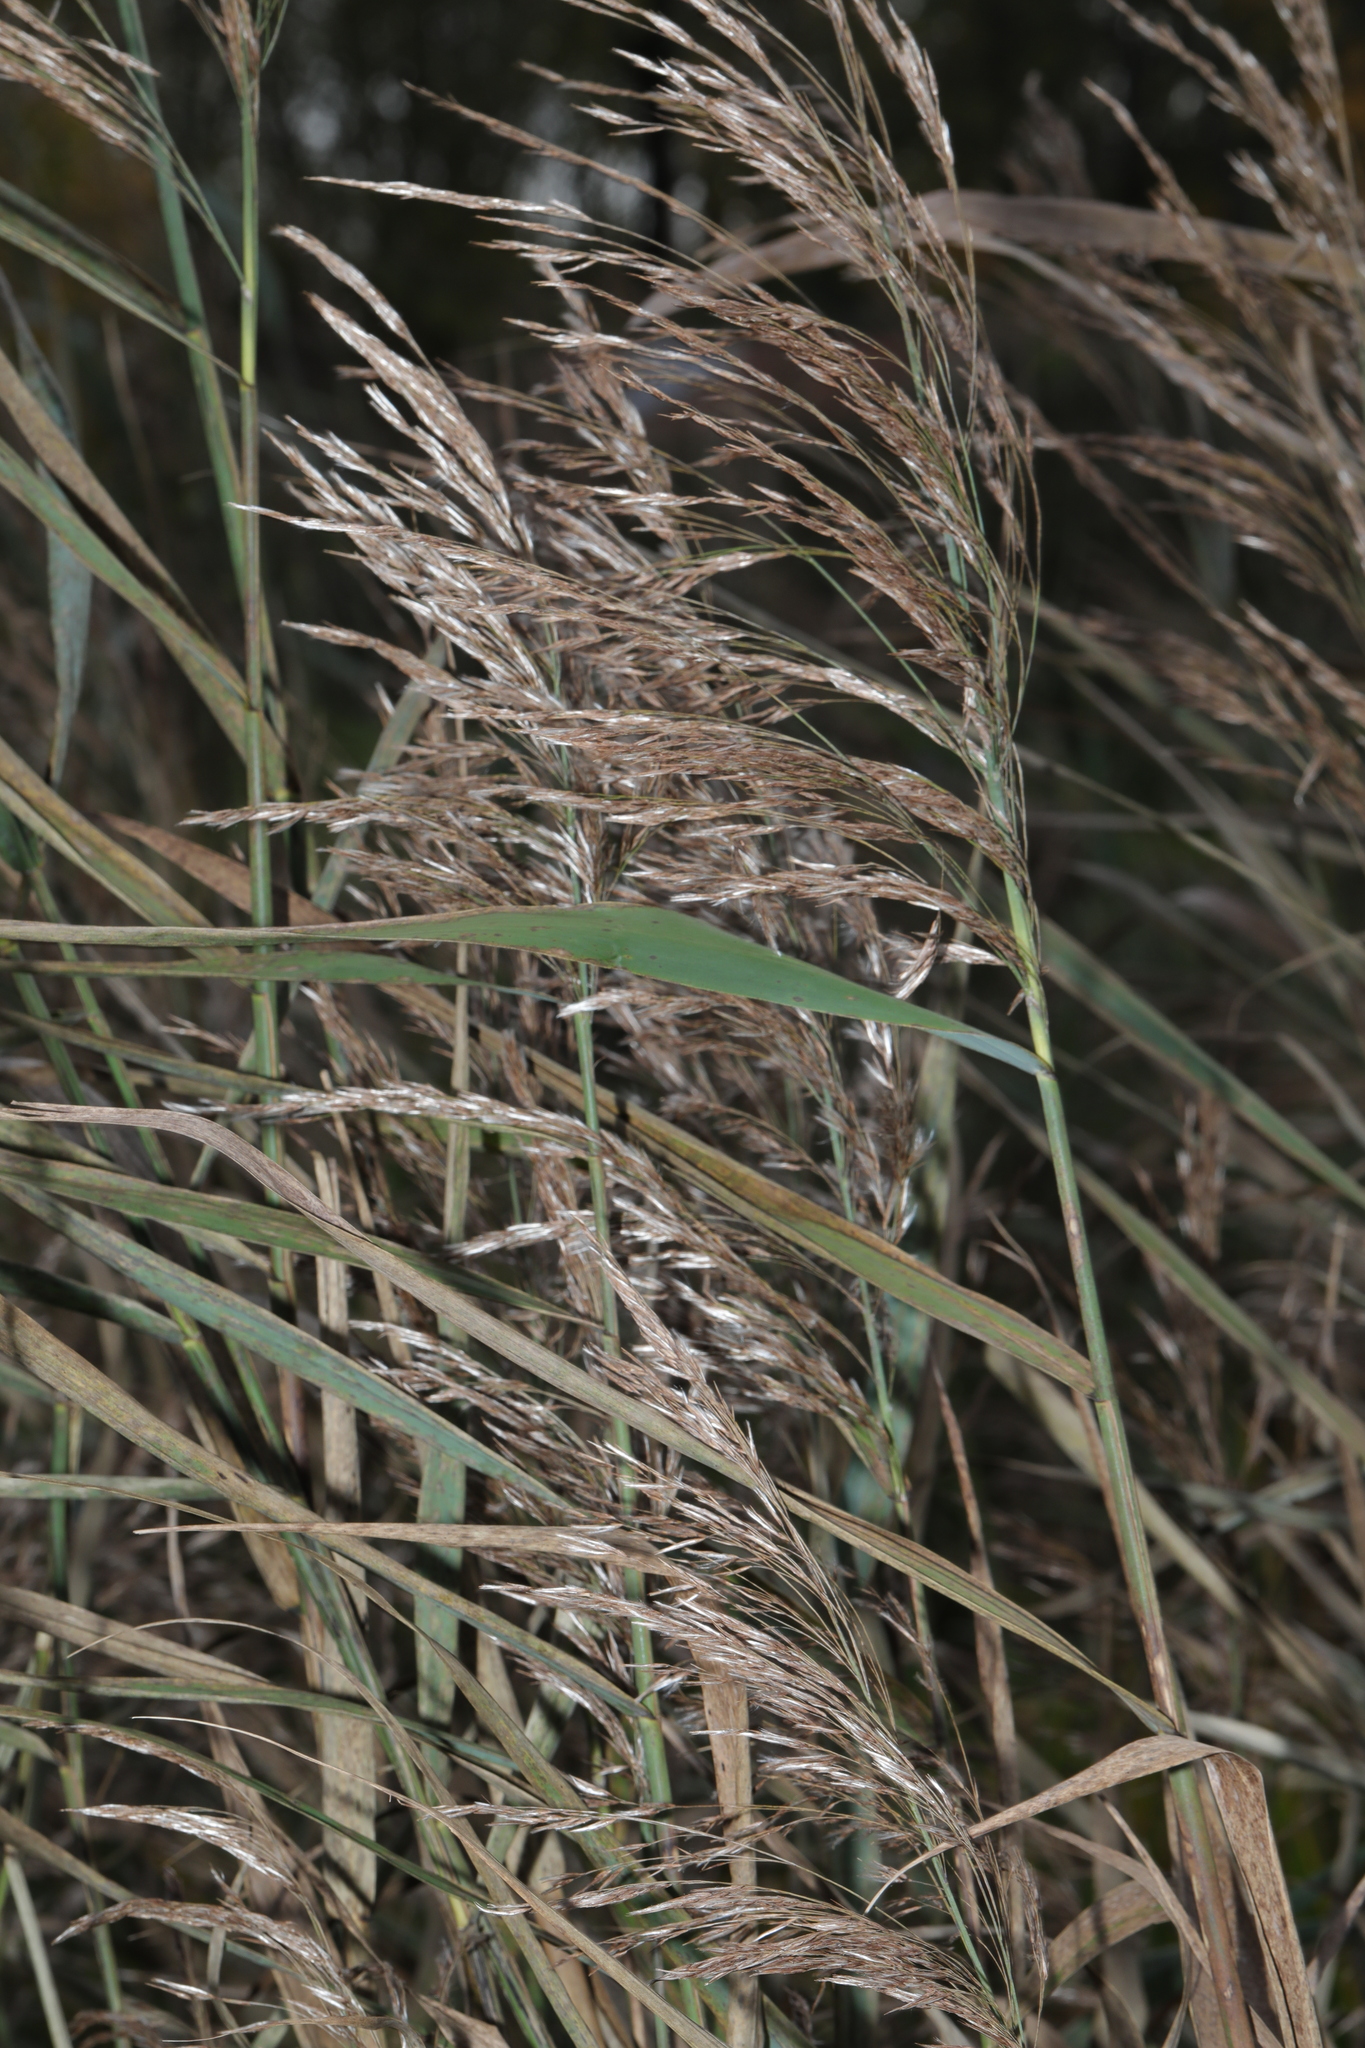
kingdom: Plantae
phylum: Tracheophyta
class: Liliopsida
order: Poales
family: Poaceae
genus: Phragmites
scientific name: Phragmites australis
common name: Common reed
